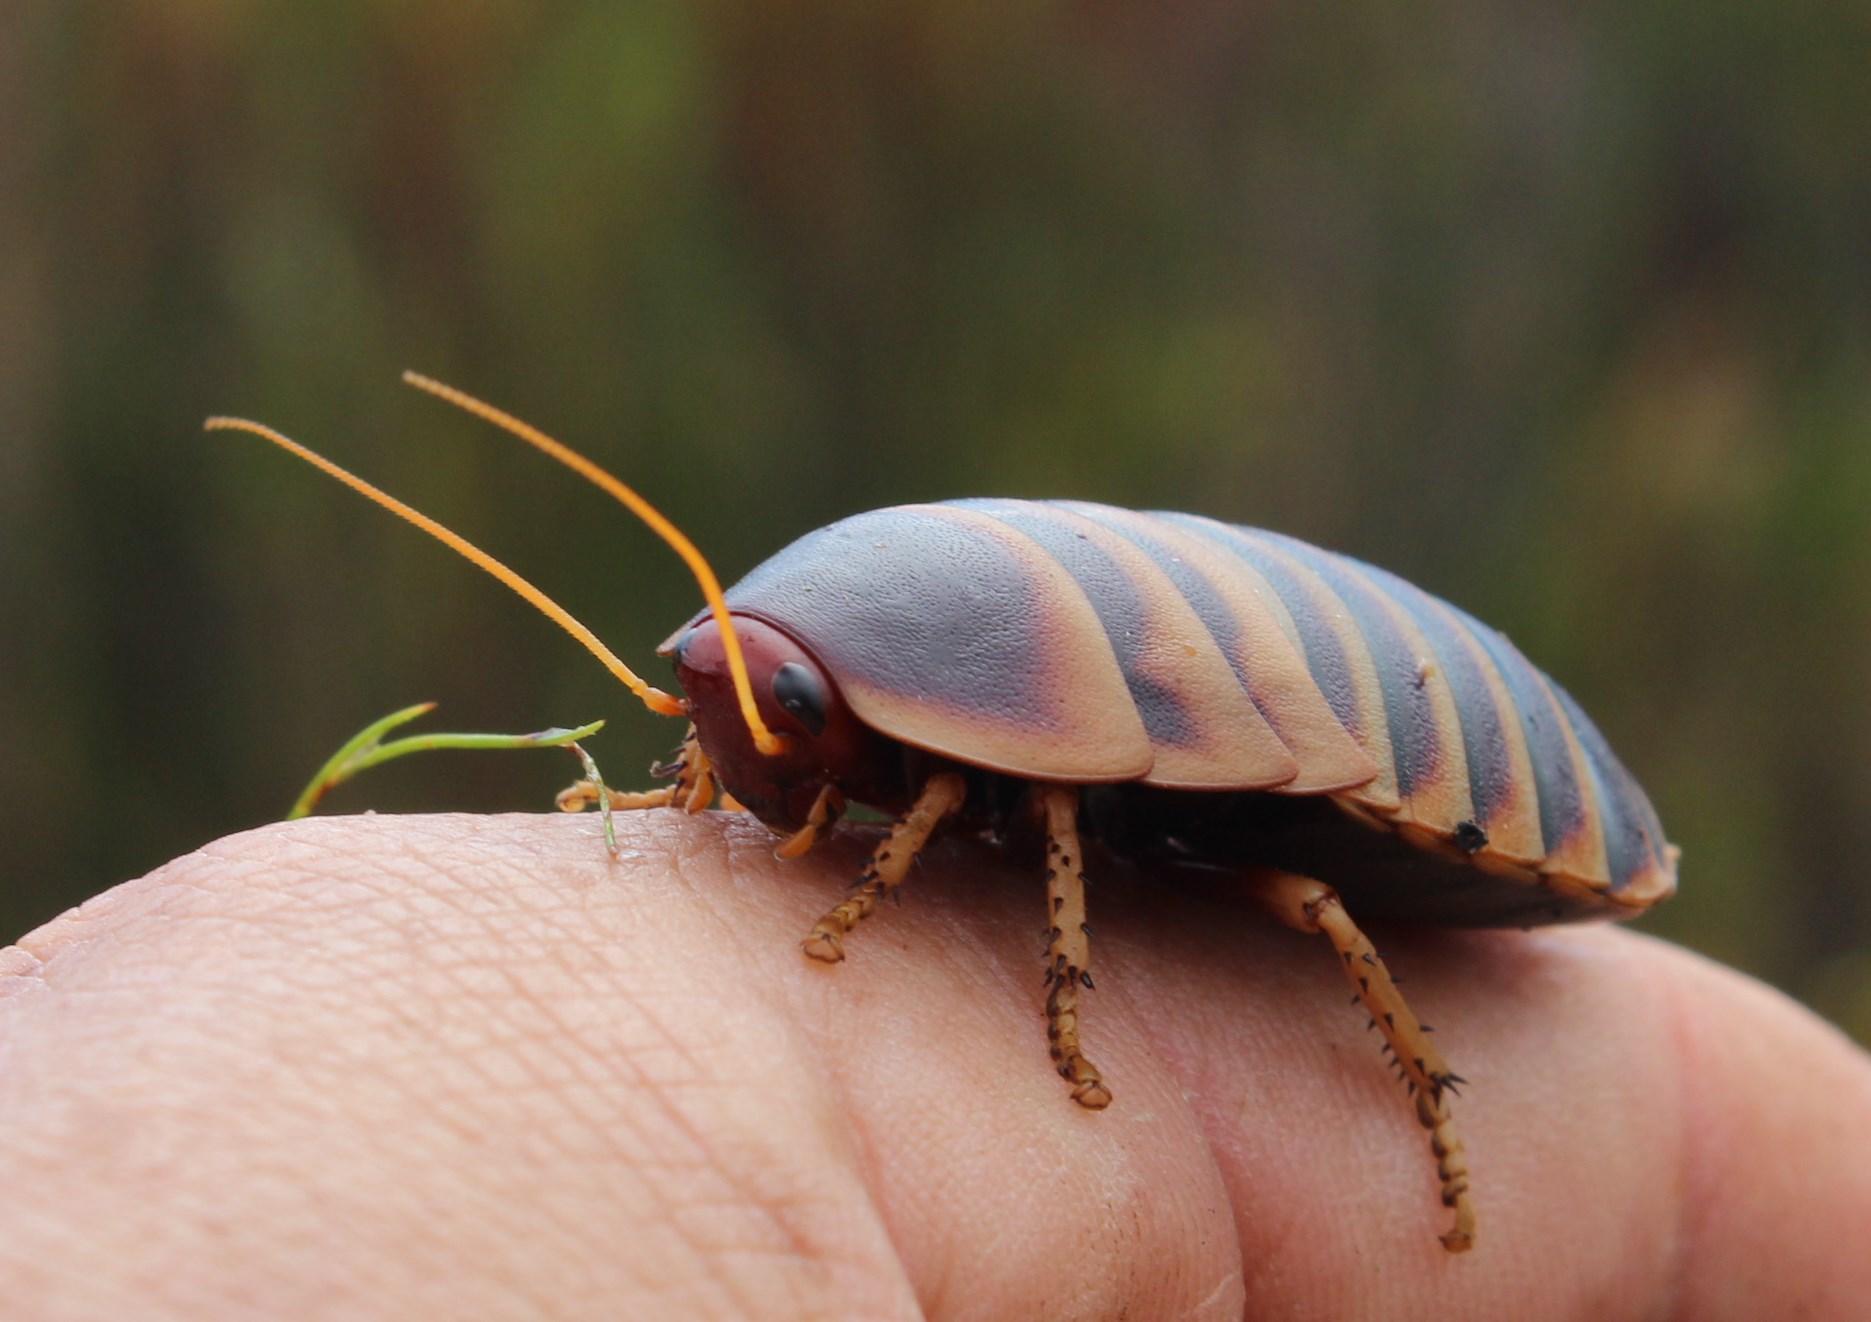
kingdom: Animalia
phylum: Arthropoda
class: Insecta
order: Blattodea
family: Blaberidae
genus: Aptera
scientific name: Aptera fusca
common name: Cape mountain cockroach
